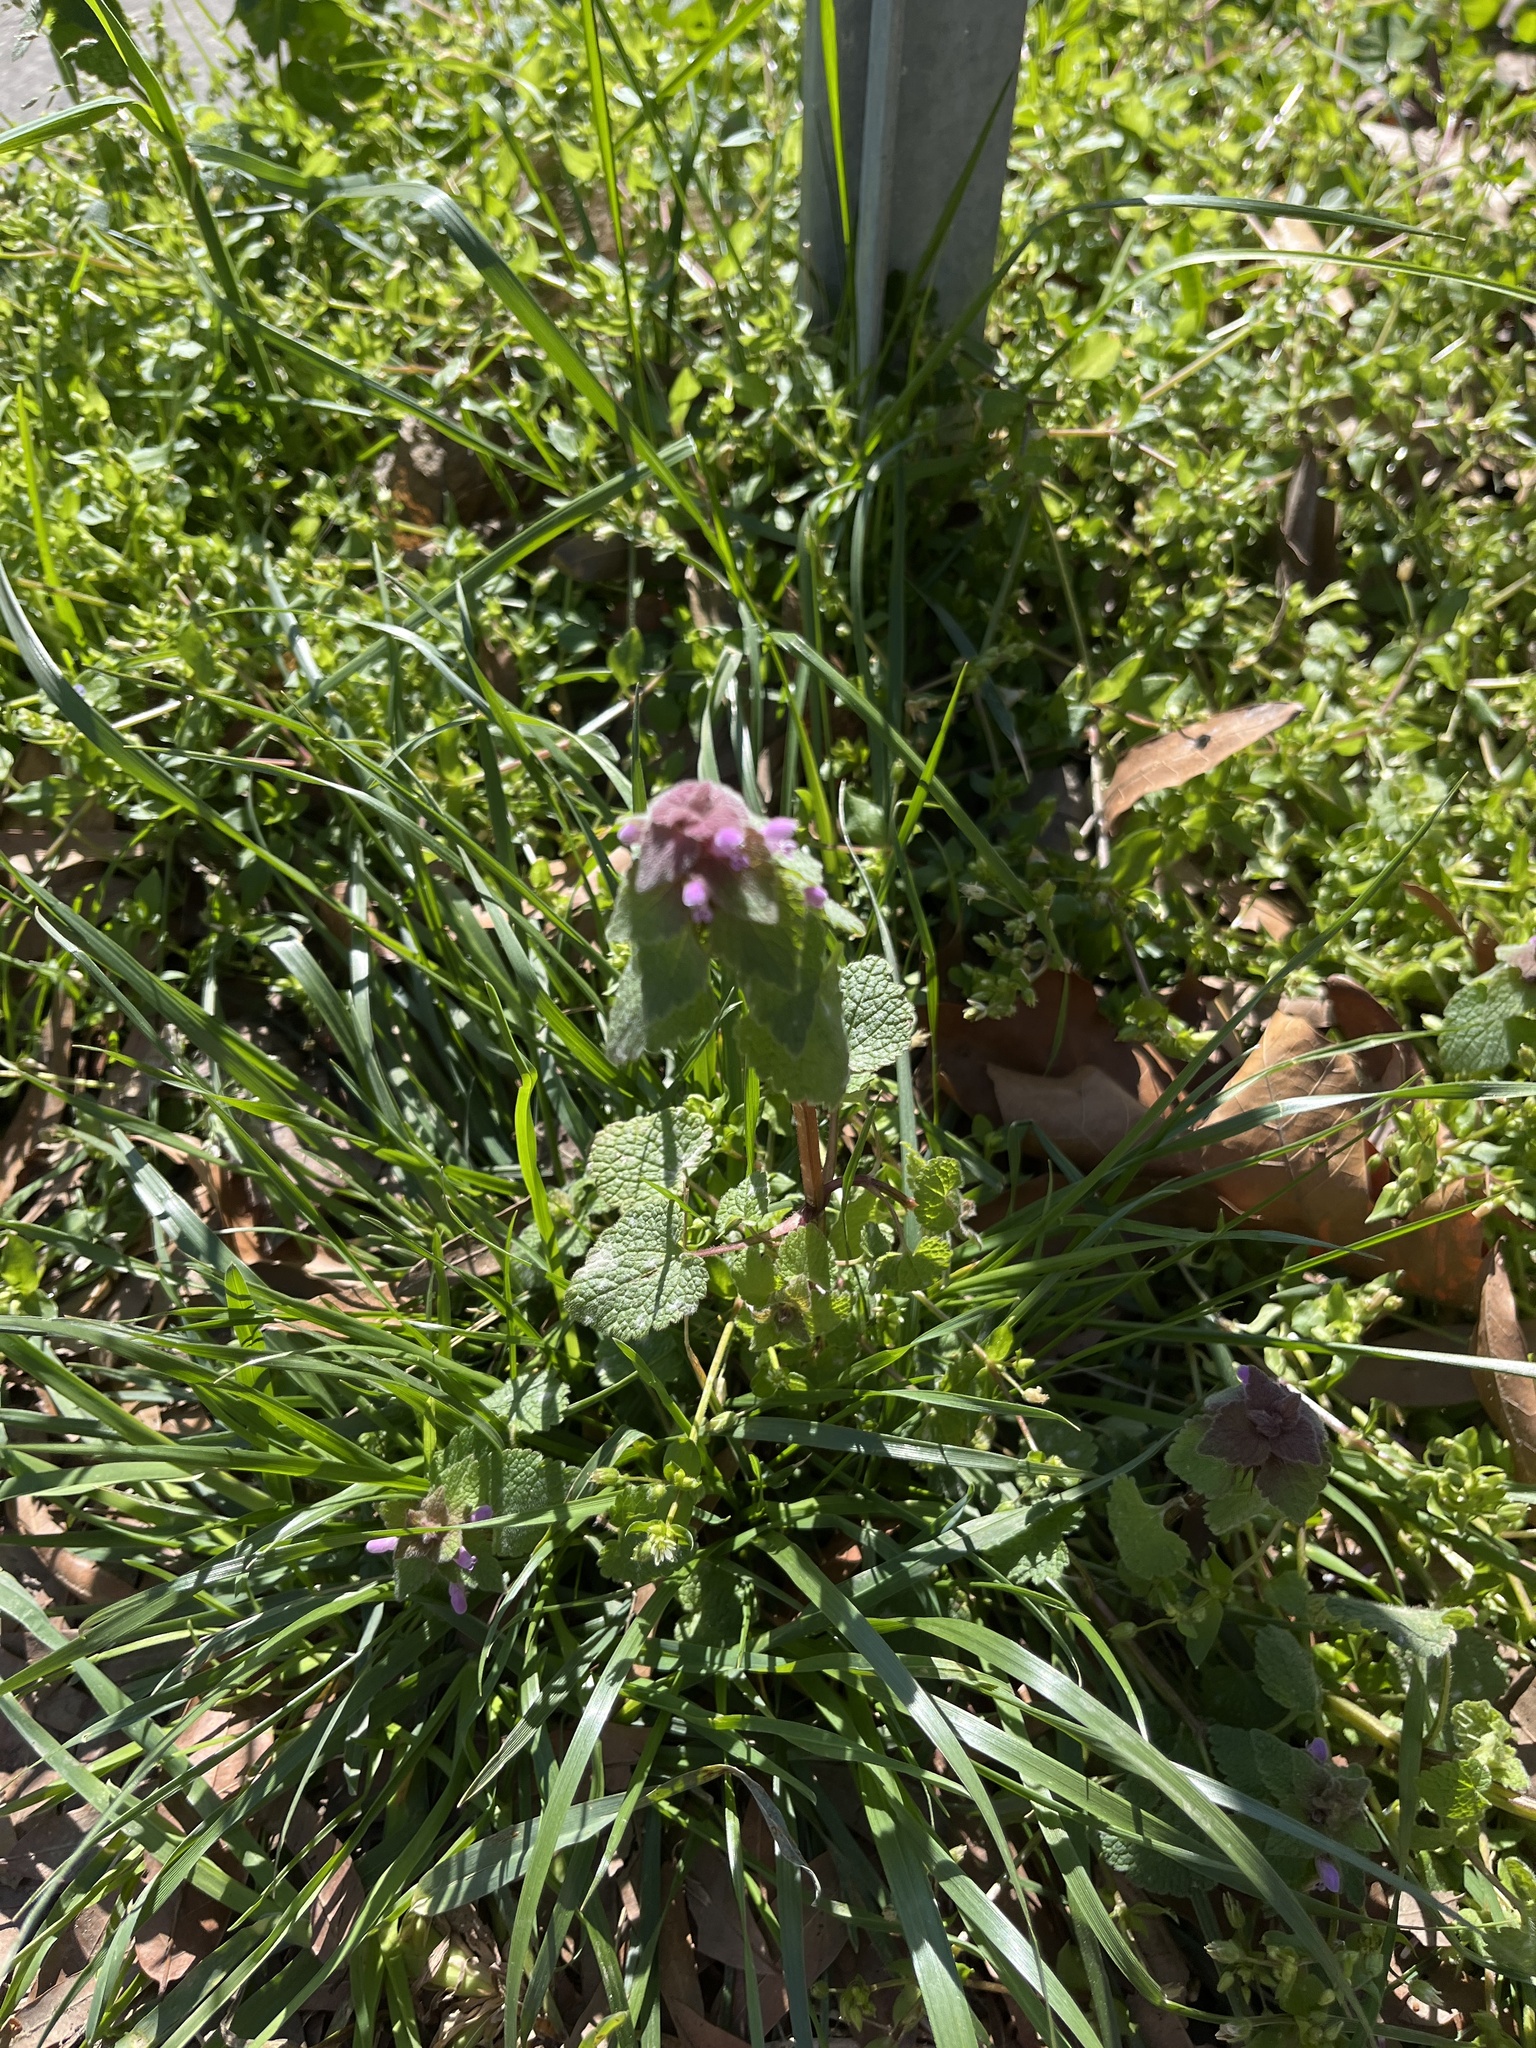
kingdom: Plantae
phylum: Tracheophyta
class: Magnoliopsida
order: Lamiales
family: Lamiaceae
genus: Lamium
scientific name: Lamium purpureum
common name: Red dead-nettle
